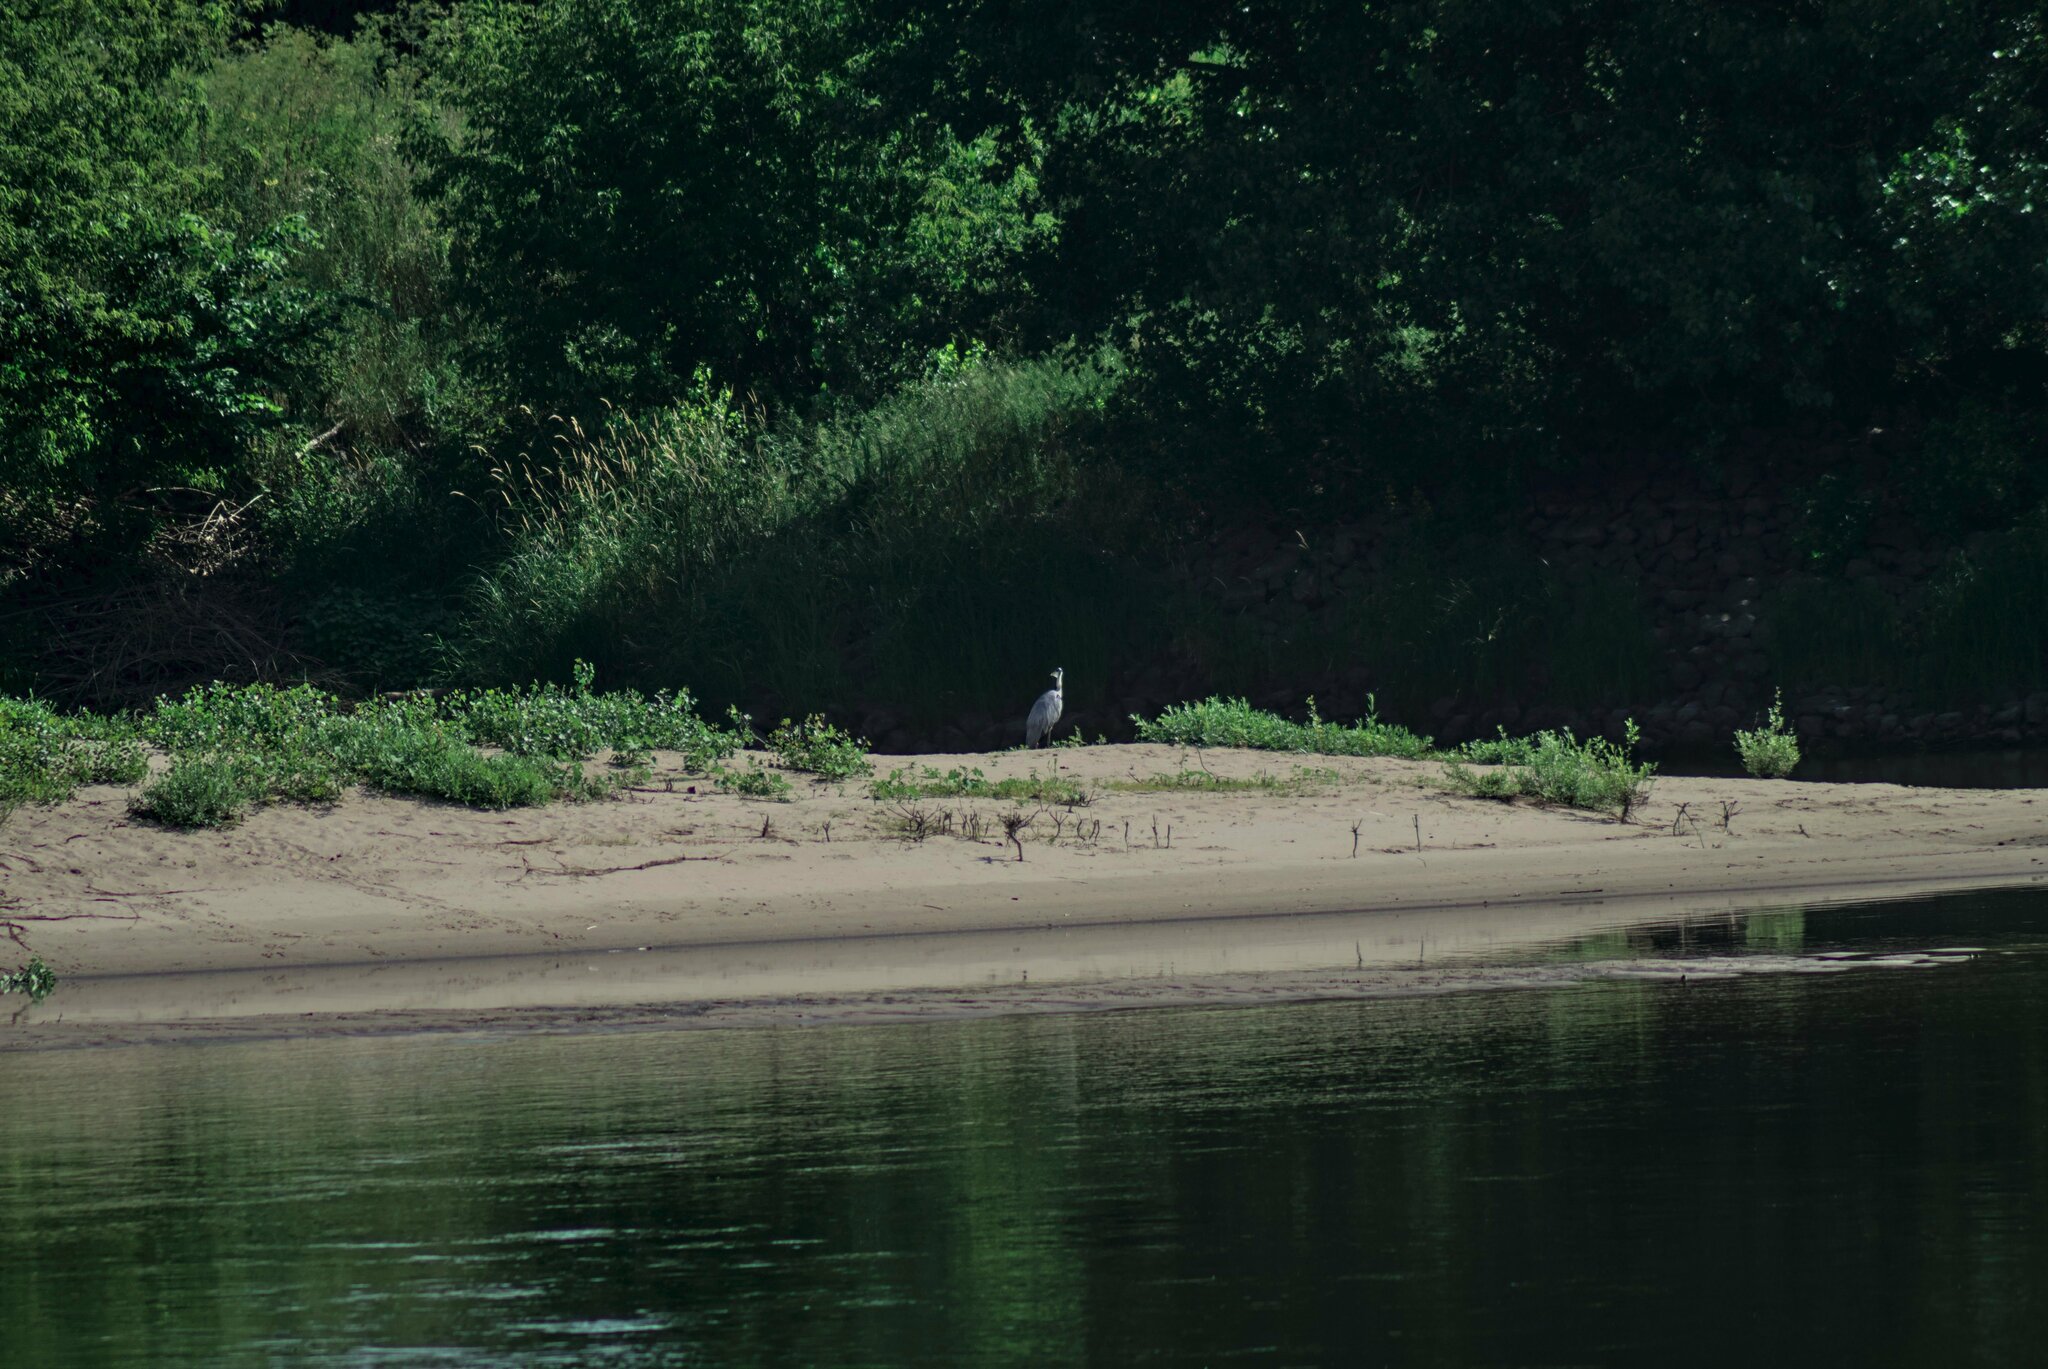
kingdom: Animalia
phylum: Chordata
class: Aves
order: Pelecaniformes
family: Ardeidae
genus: Ardea
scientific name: Ardea cinerea
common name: Grey heron
